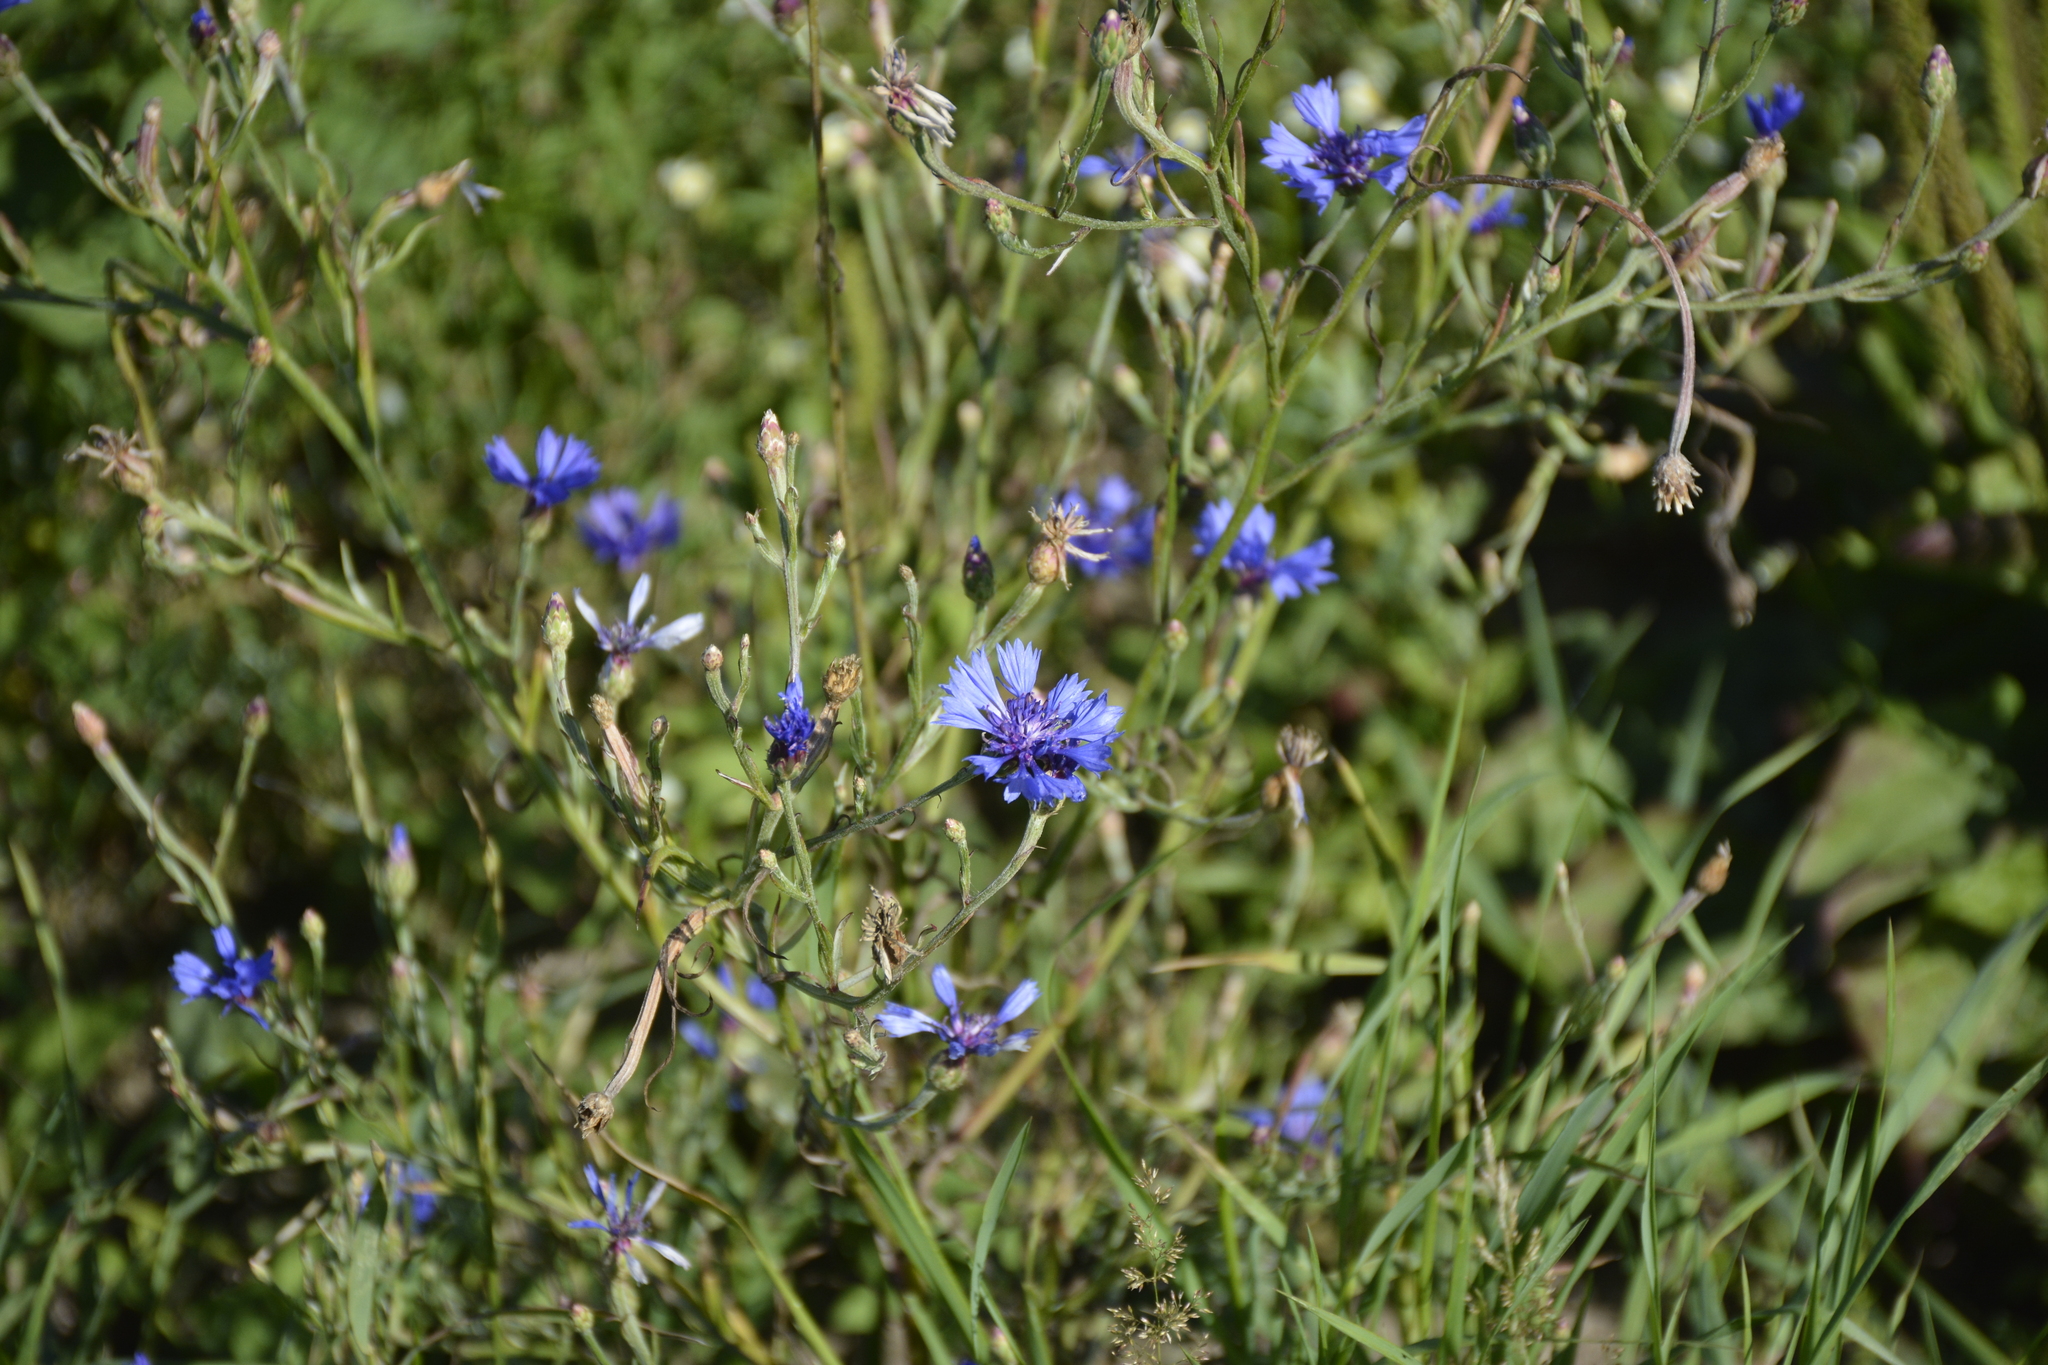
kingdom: Plantae
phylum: Tracheophyta
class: Magnoliopsida
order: Asterales
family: Asteraceae
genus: Centaurea
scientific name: Centaurea cyanus
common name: Cornflower
